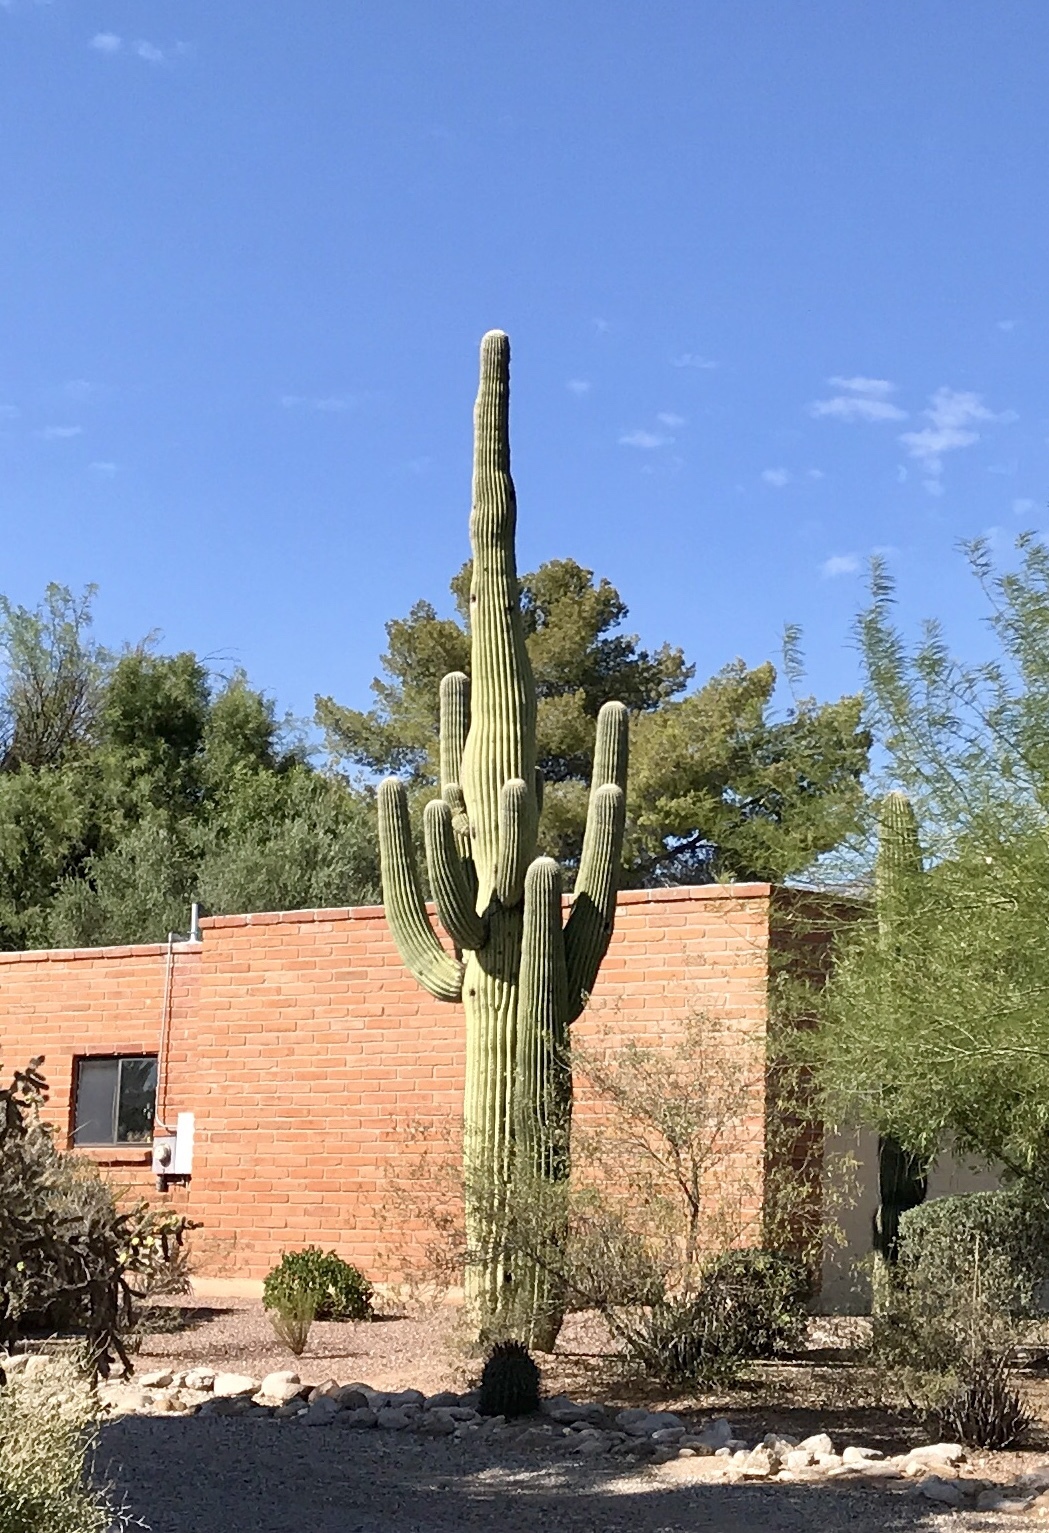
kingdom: Plantae
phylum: Tracheophyta
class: Magnoliopsida
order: Caryophyllales
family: Cactaceae
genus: Carnegiea
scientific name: Carnegiea gigantea
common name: Saguaro
